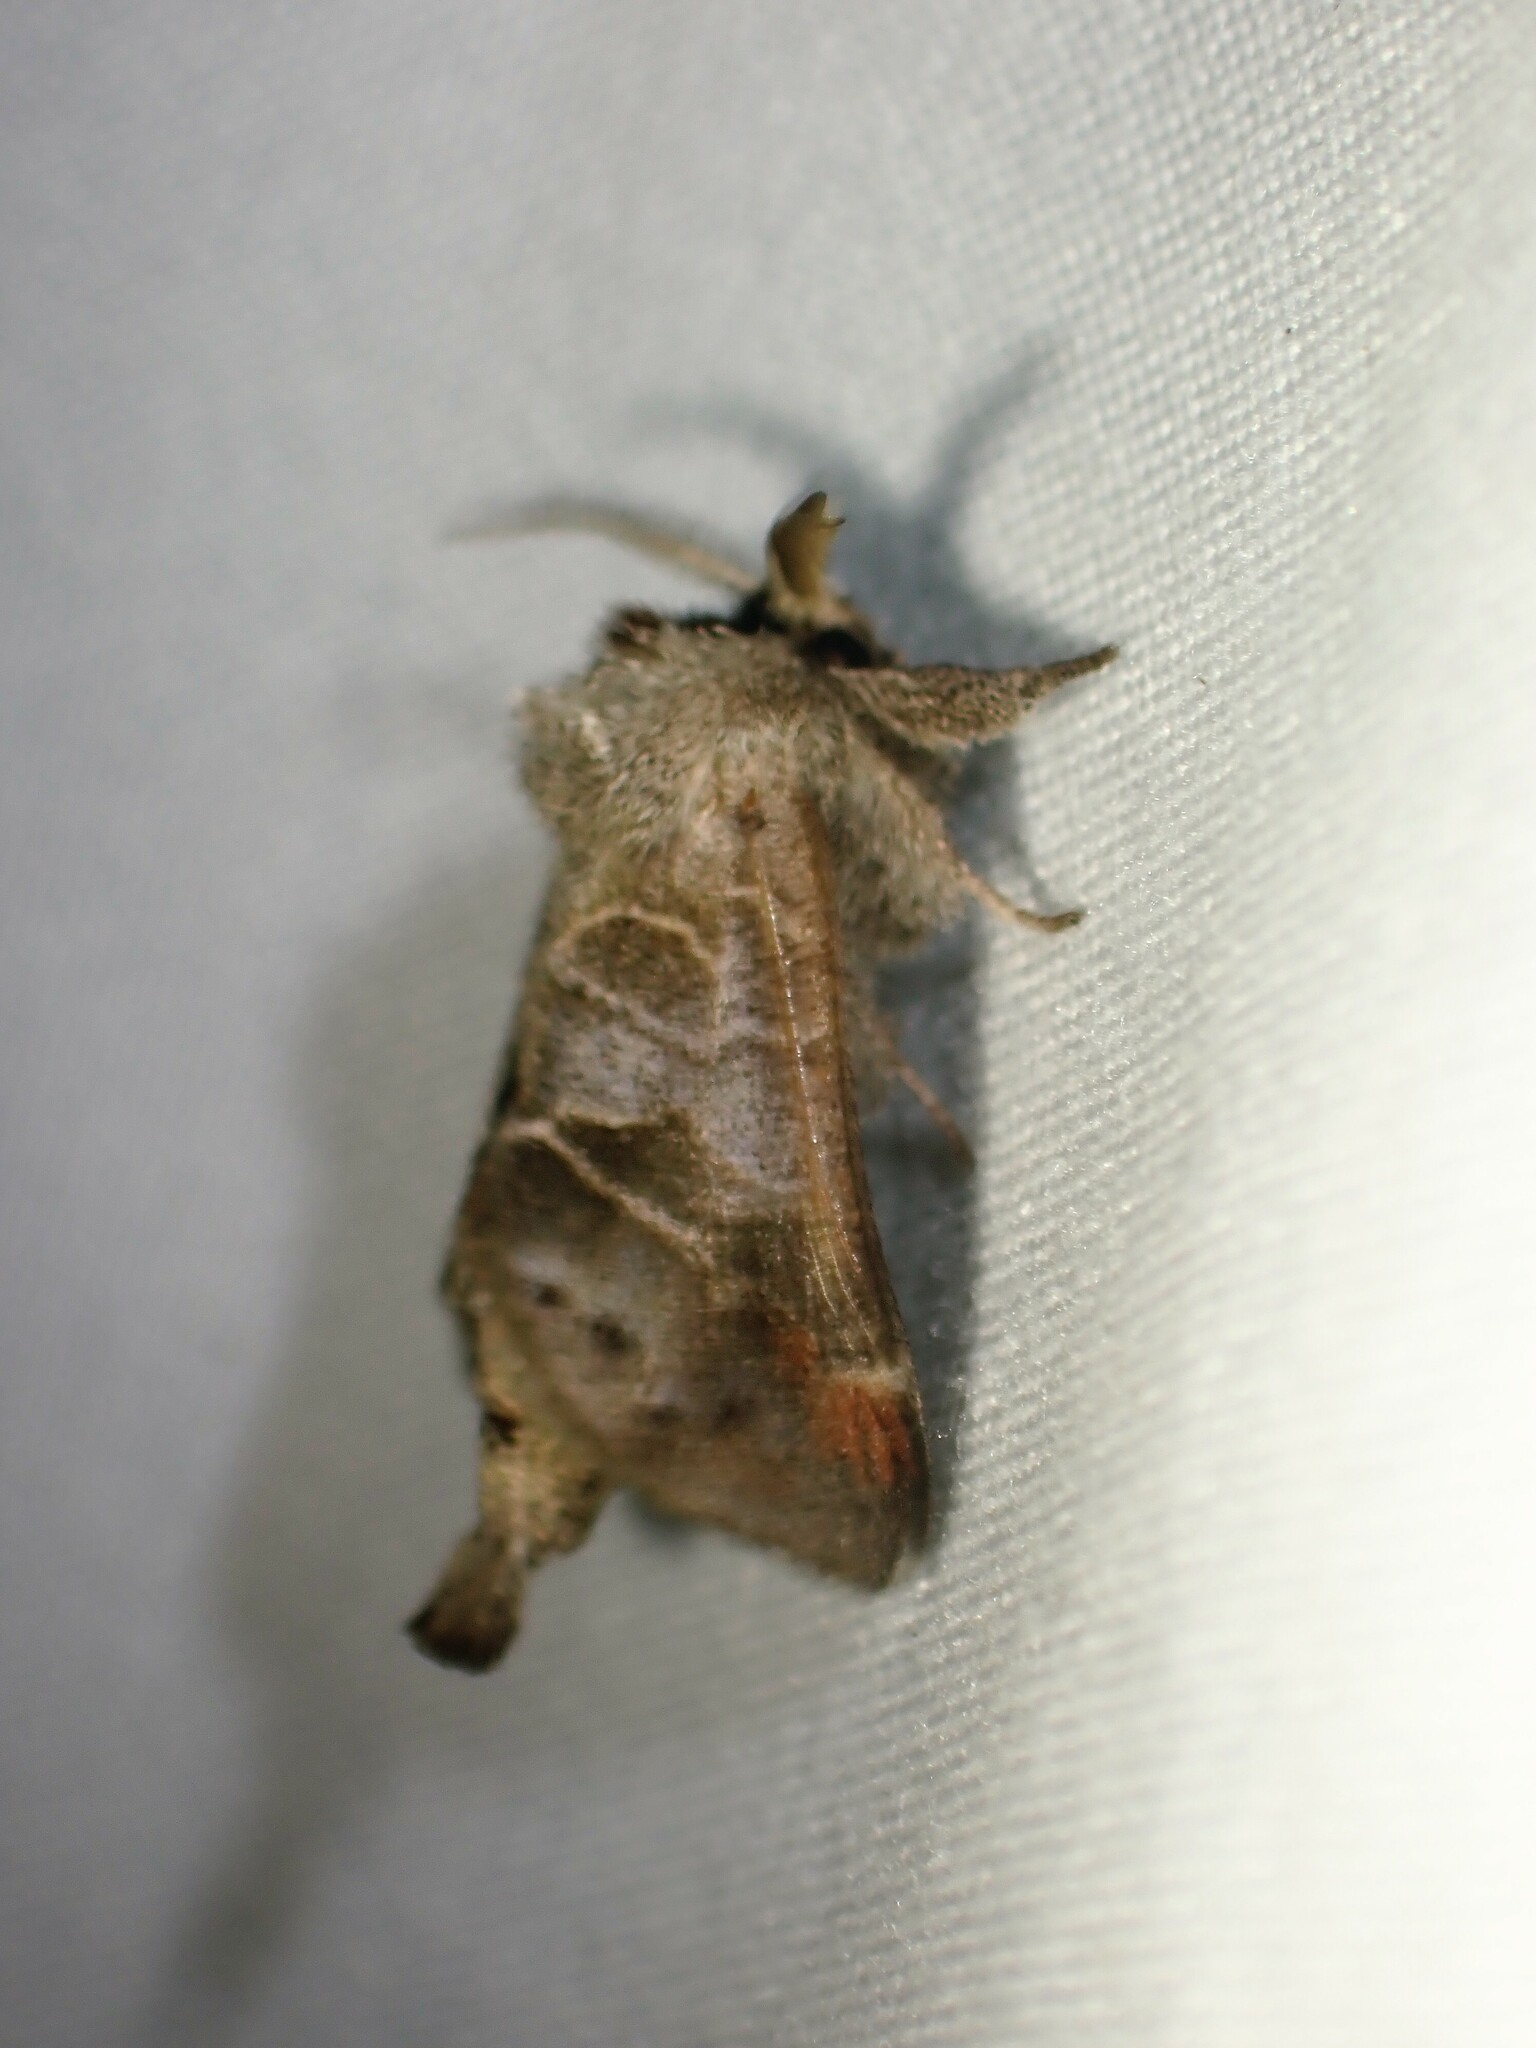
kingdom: Animalia
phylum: Arthropoda
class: Insecta
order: Lepidoptera
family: Notodontidae
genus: Clostera
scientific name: Clostera brucei
